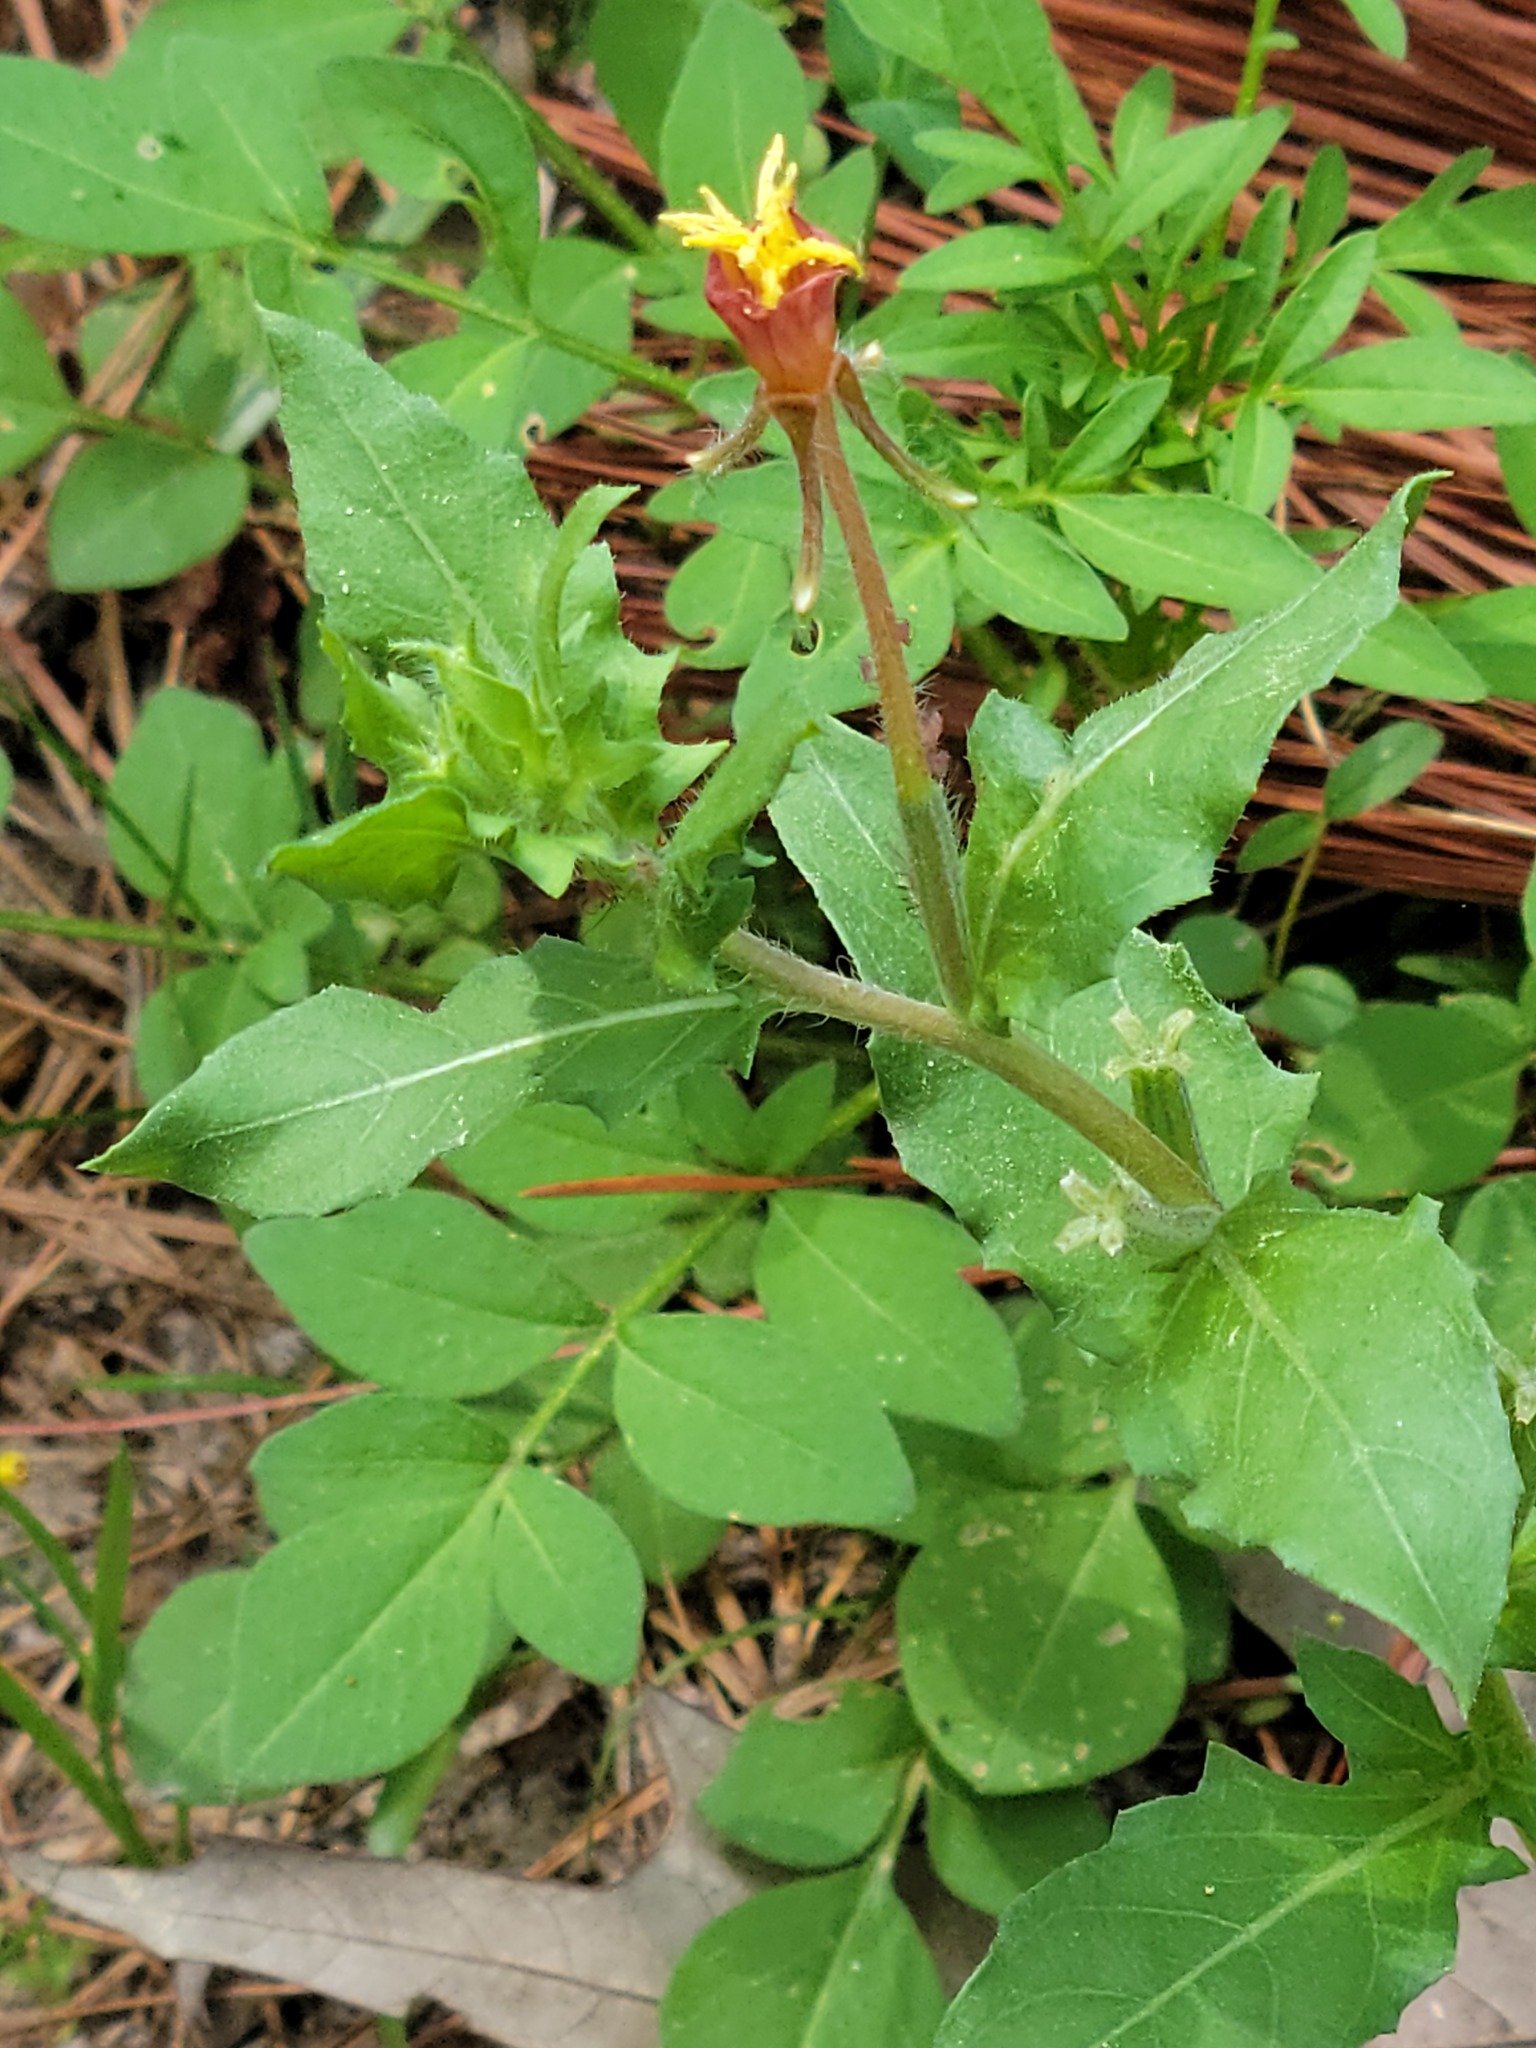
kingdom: Plantae
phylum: Tracheophyta
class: Magnoliopsida
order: Myrtales
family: Onagraceae
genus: Oenothera
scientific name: Oenothera laciniata
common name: Cut-leaved evening-primrose
